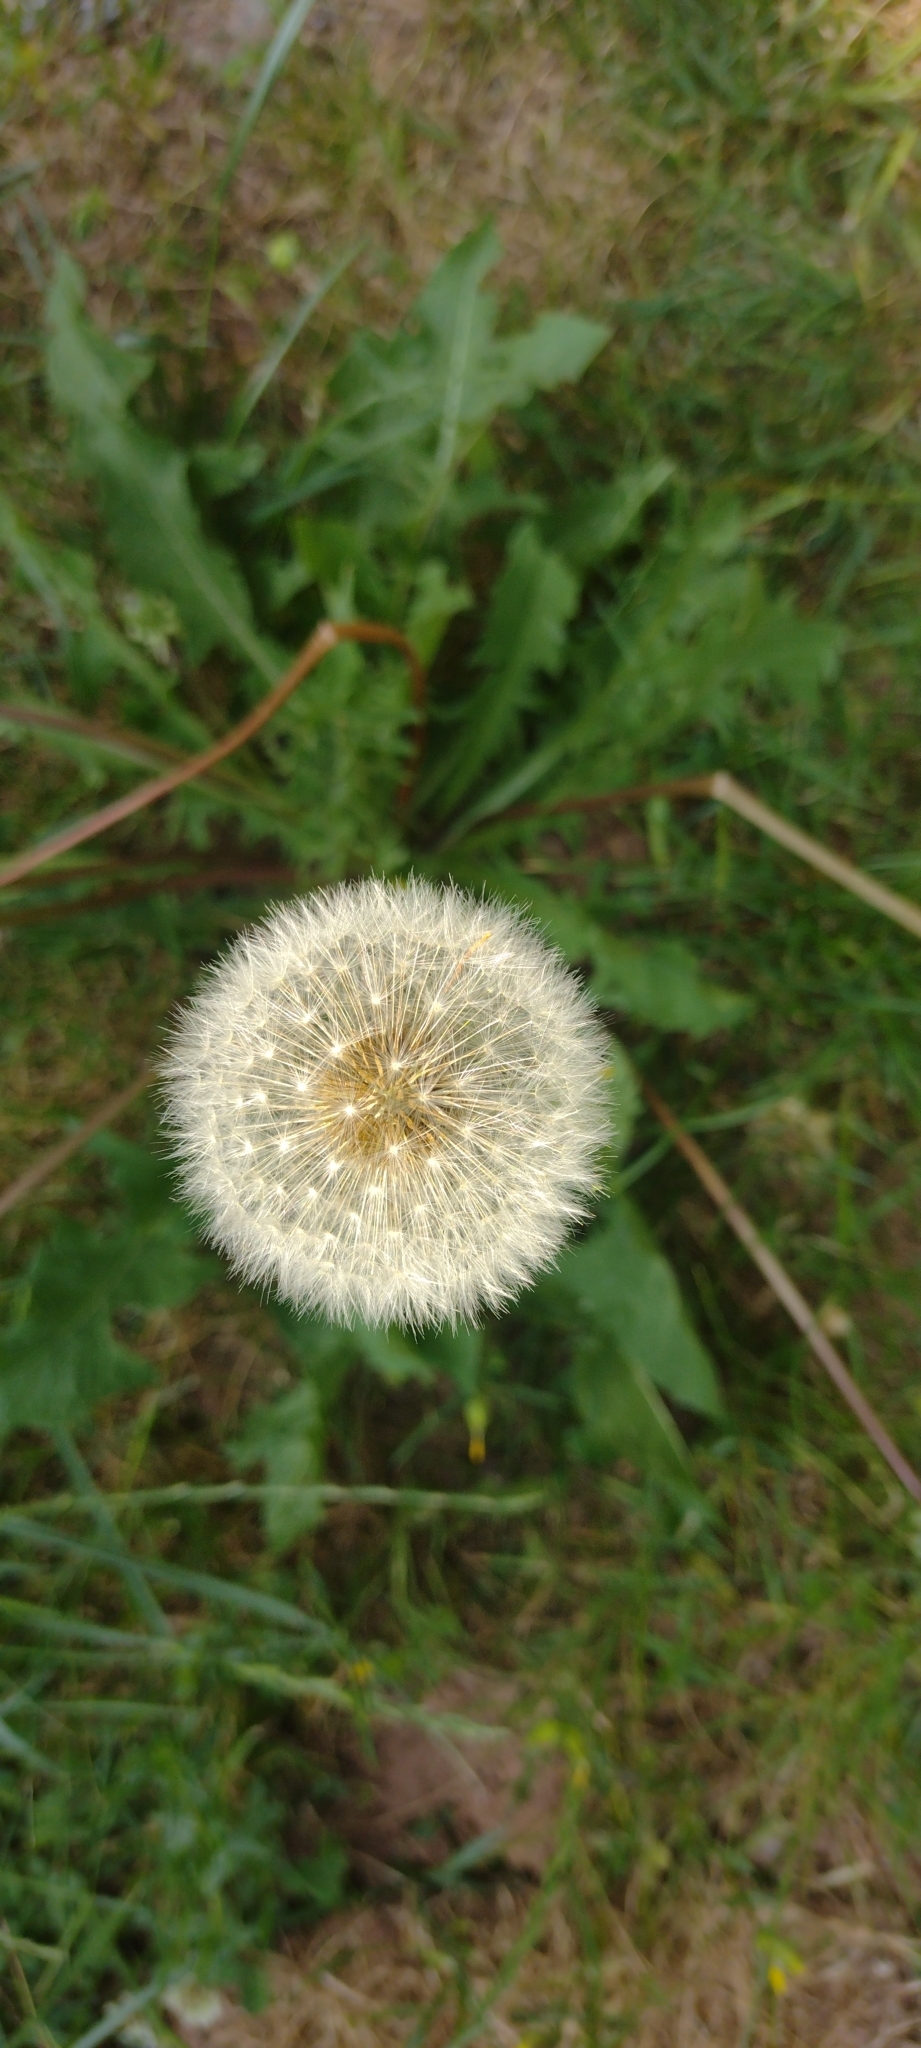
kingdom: Plantae
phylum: Tracheophyta
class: Magnoliopsida
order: Asterales
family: Asteraceae
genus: Taraxacum
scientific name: Taraxacum officinale
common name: Common dandelion
